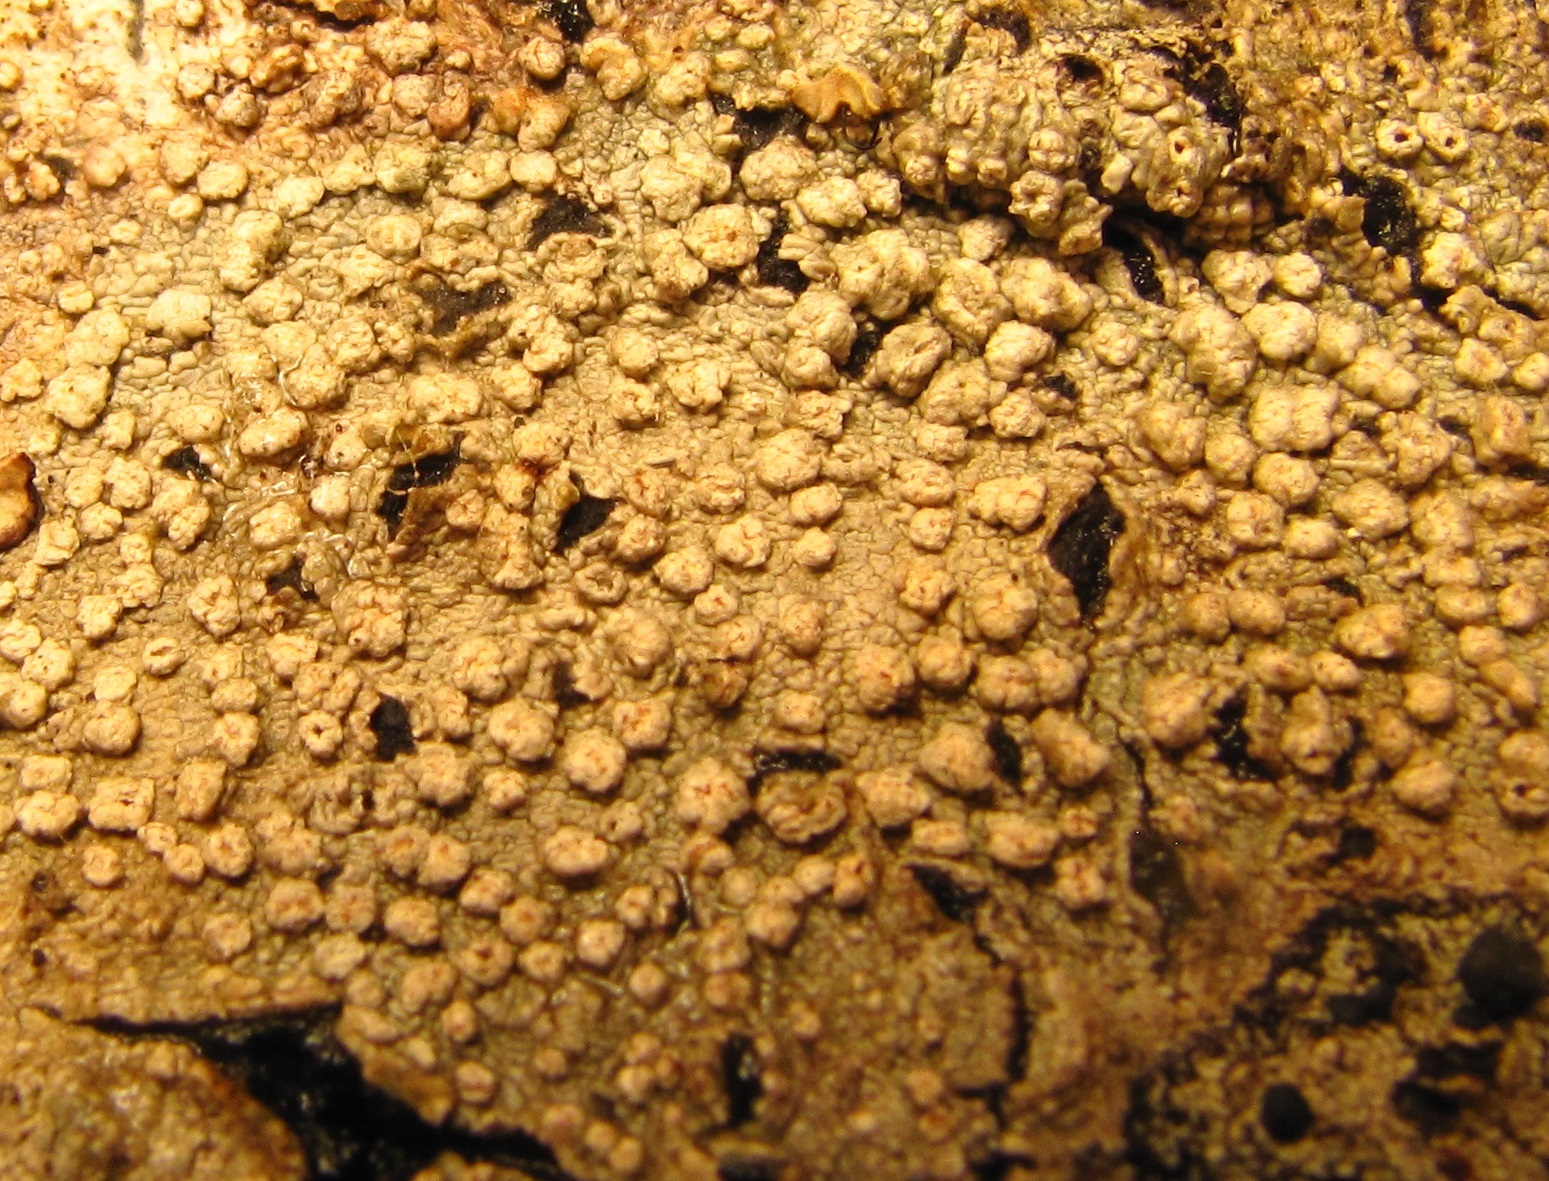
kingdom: Fungi
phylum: Ascomycota
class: Lecanoromycetes
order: Pertusariales
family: Pertusariaceae
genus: Lepra
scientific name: Lepra trachythallina
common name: Powdered wart lichen
